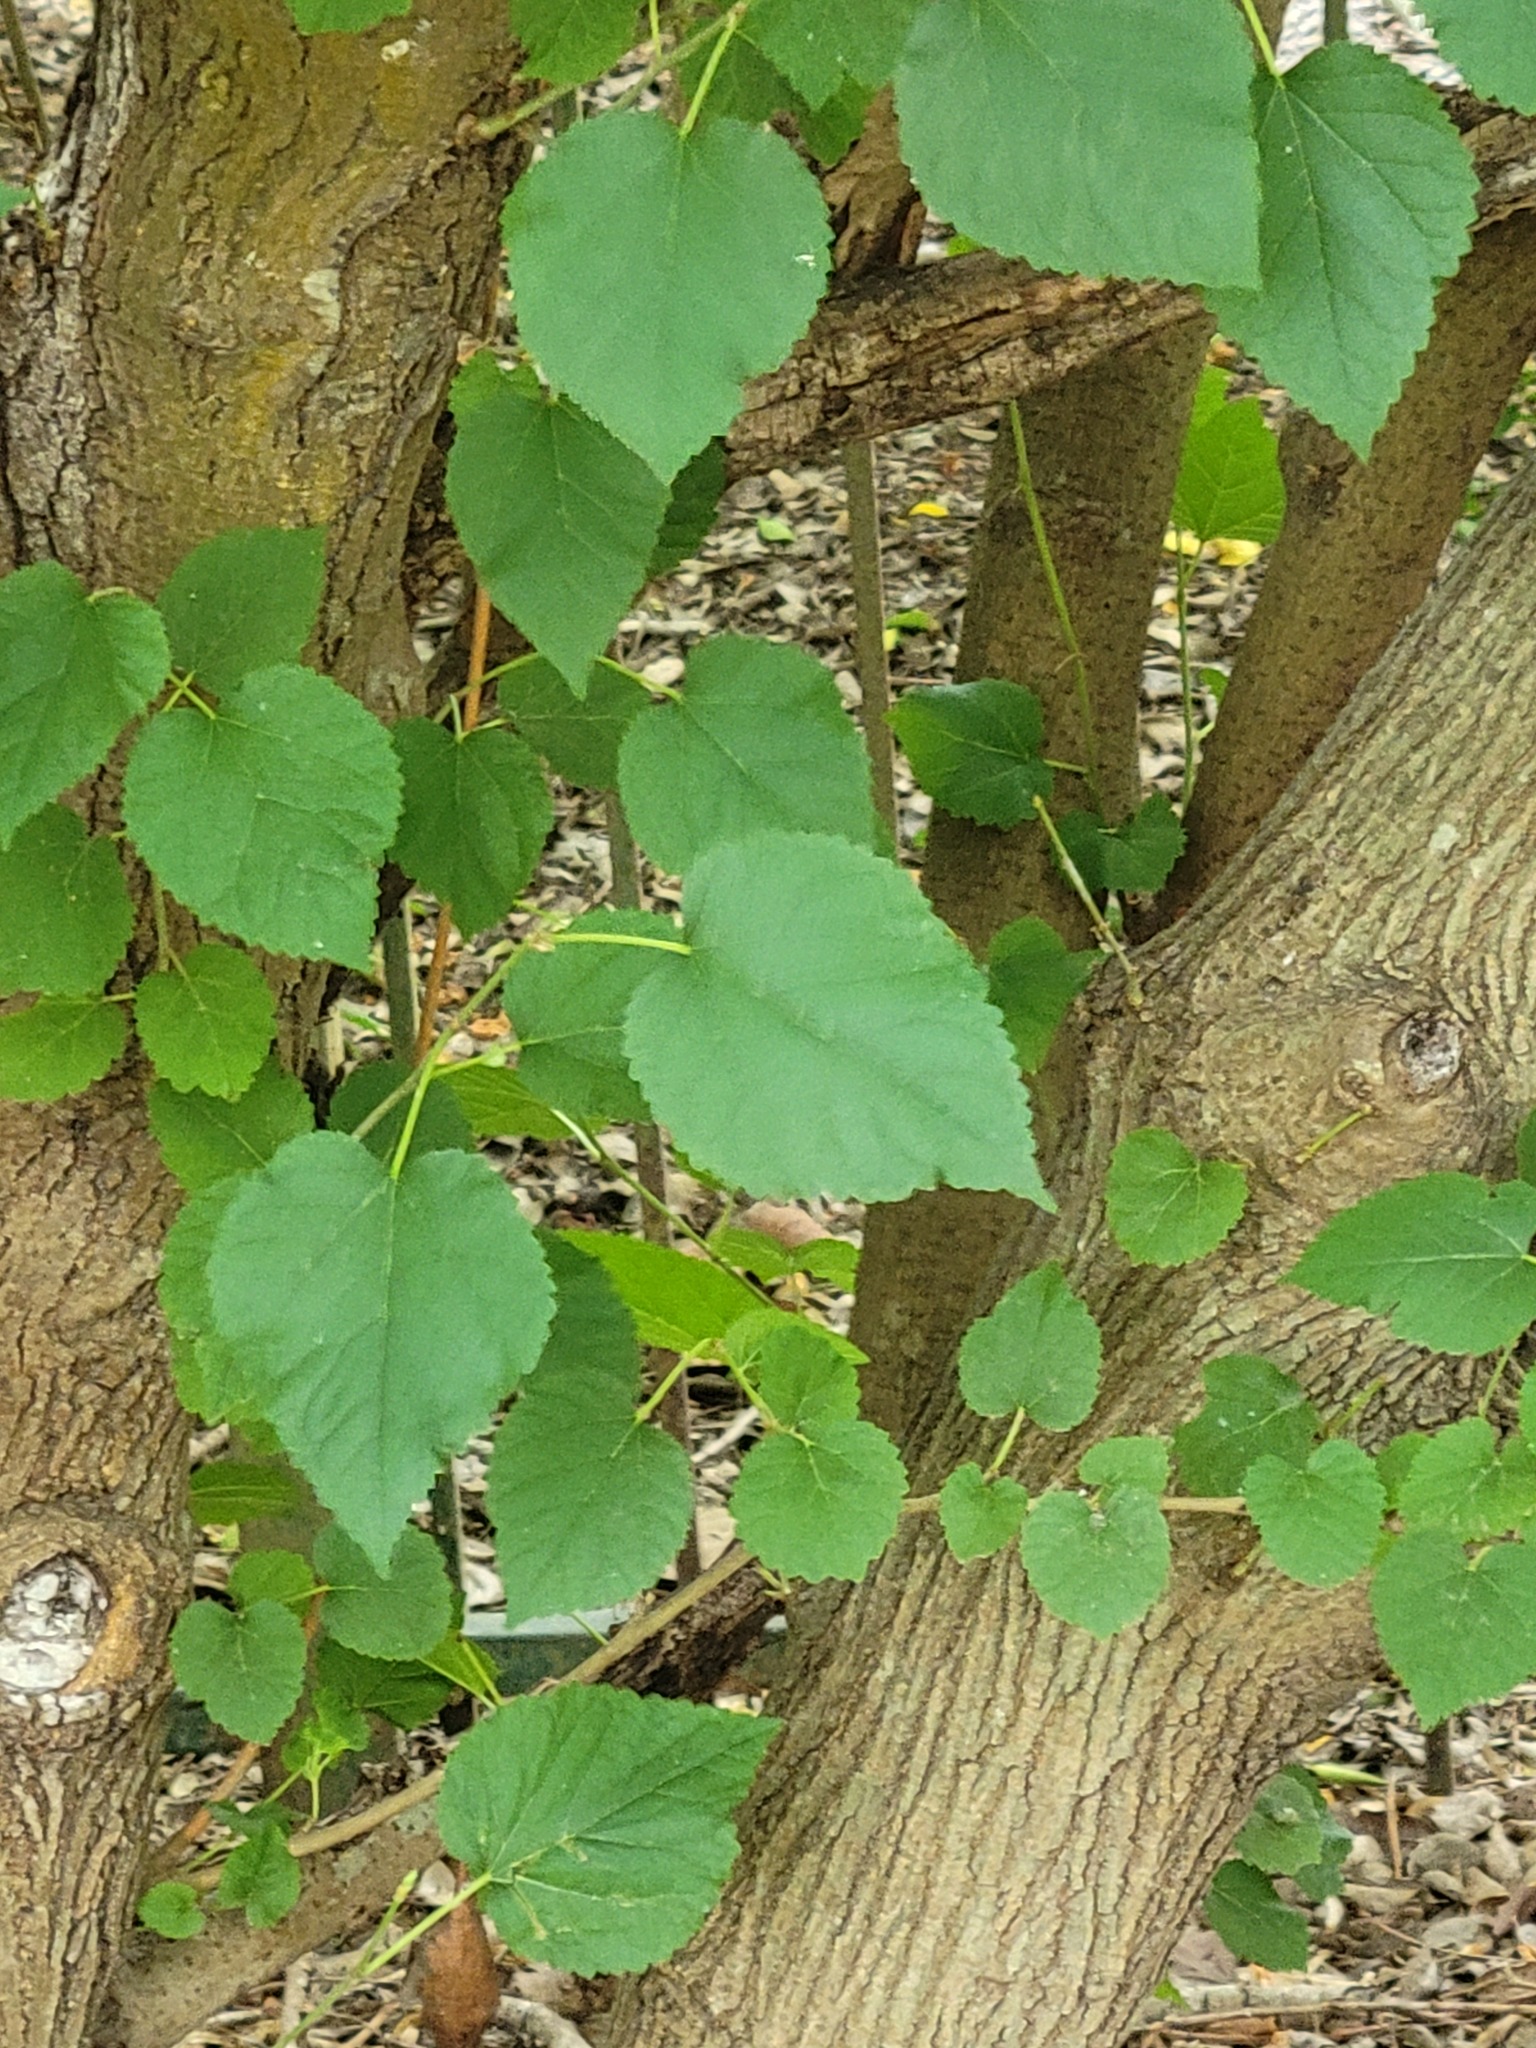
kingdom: Plantae
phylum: Tracheophyta
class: Magnoliopsida
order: Rosales
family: Moraceae
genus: Morus
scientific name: Morus alba
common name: White mulberry
